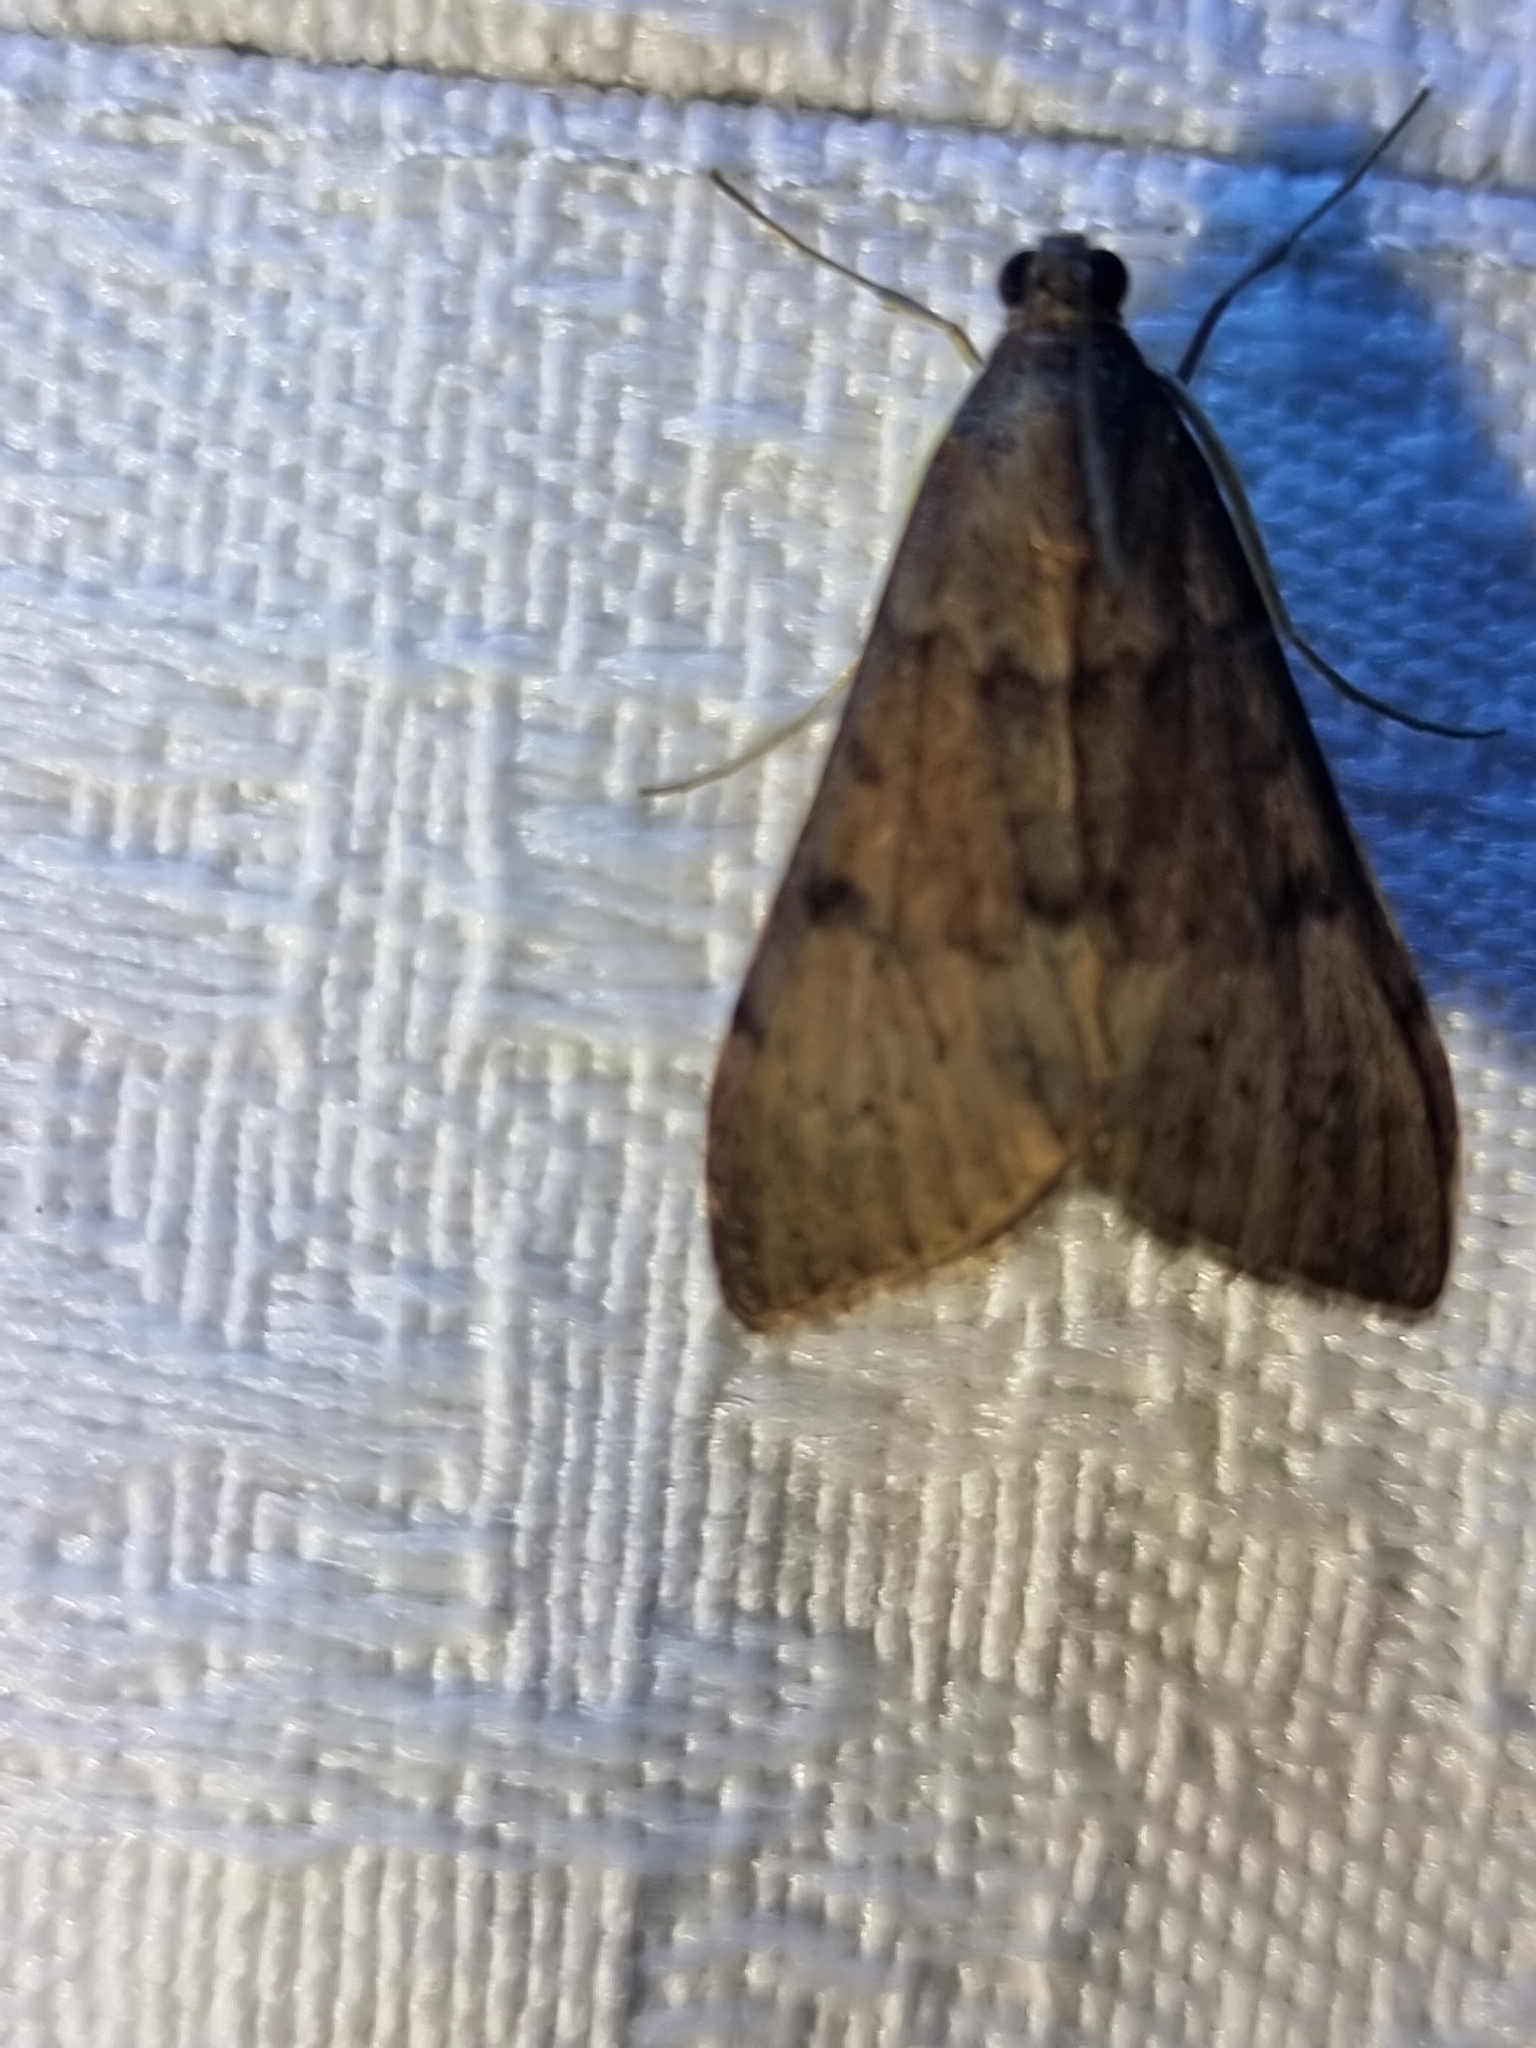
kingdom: Animalia
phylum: Arthropoda
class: Insecta
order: Lepidoptera
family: Crambidae
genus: Uresiphita
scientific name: Uresiphita ornithopteralis
